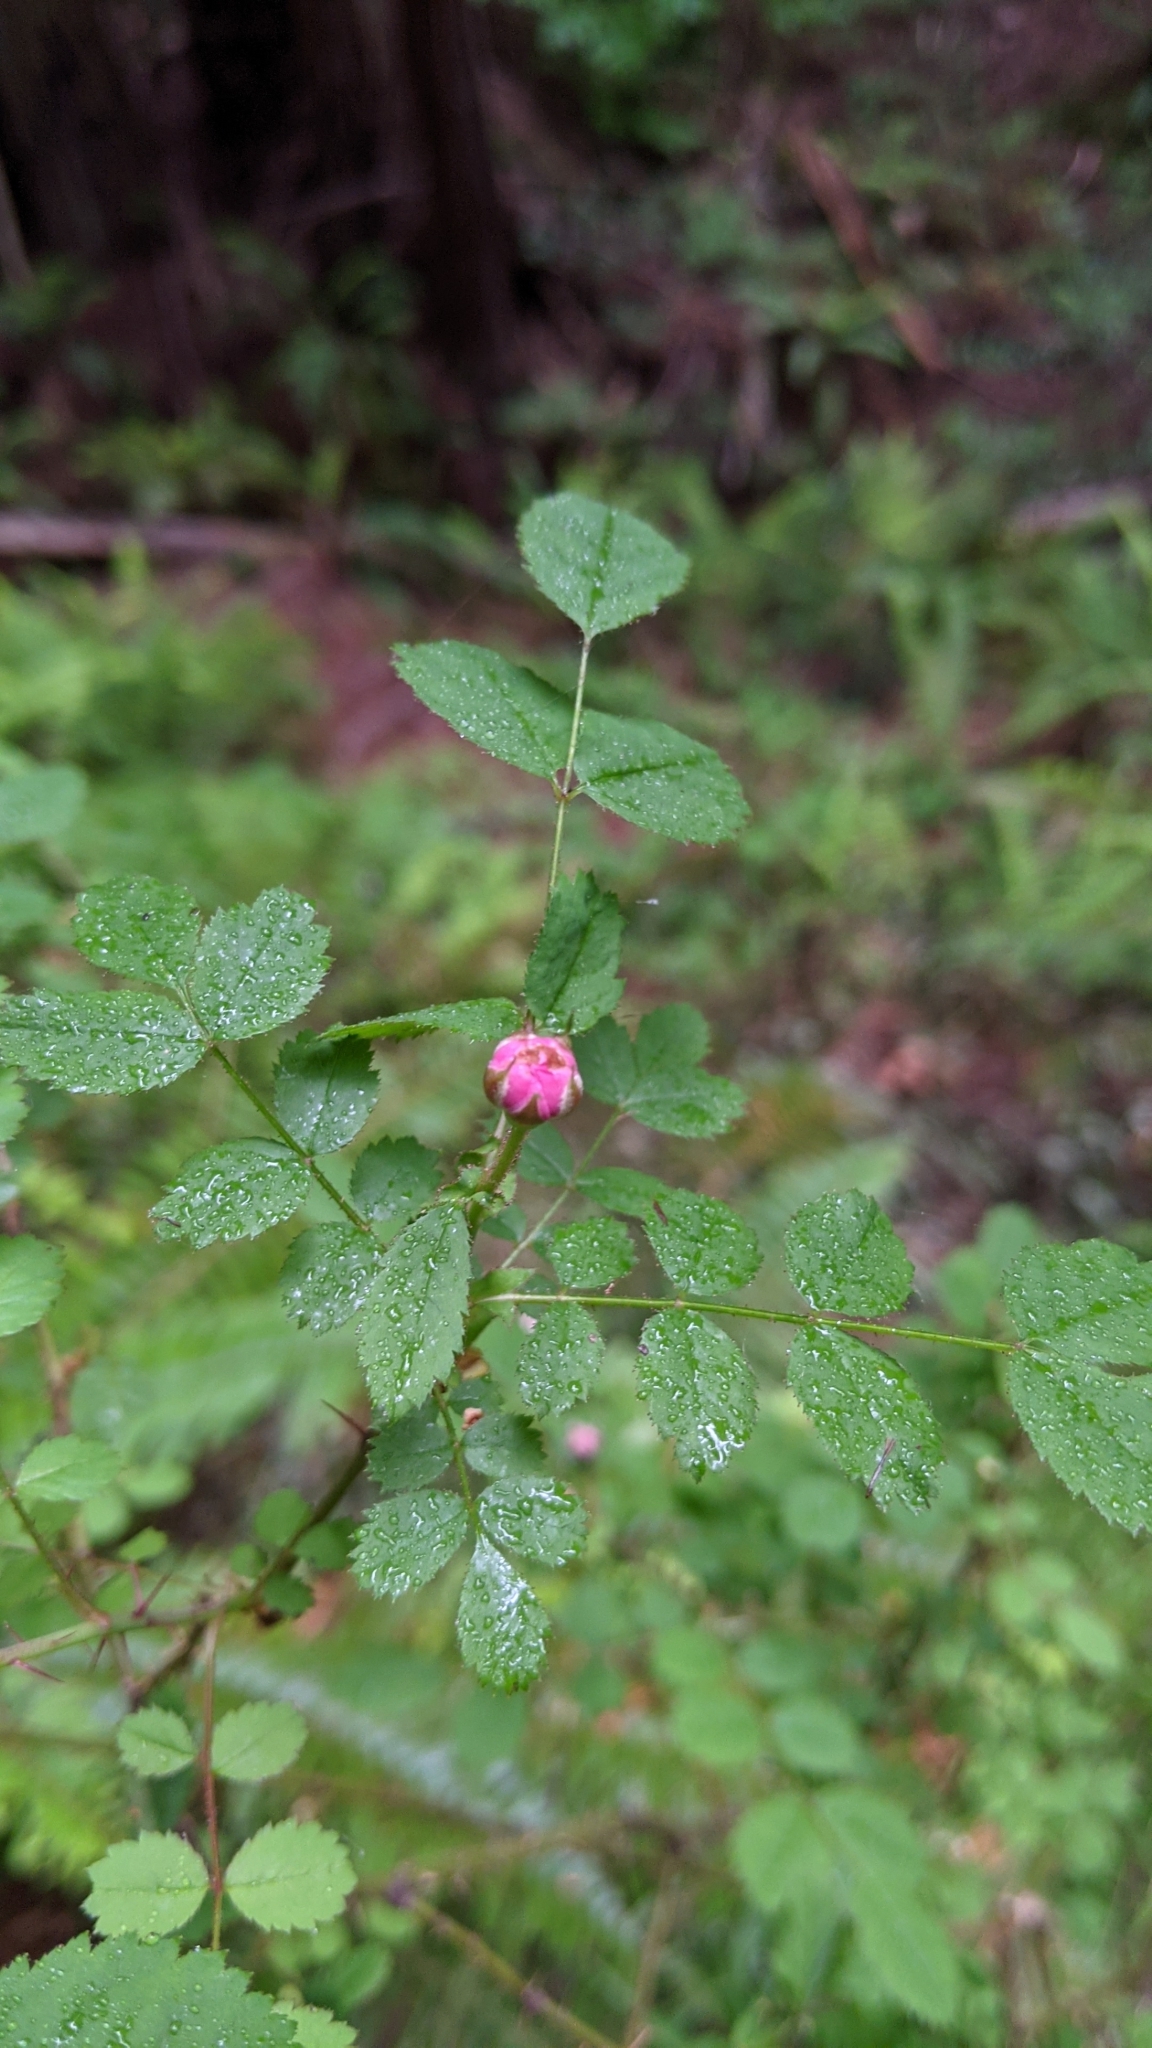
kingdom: Plantae
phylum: Tracheophyta
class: Magnoliopsida
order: Rosales
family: Rosaceae
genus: Rosa
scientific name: Rosa gymnocarpa
